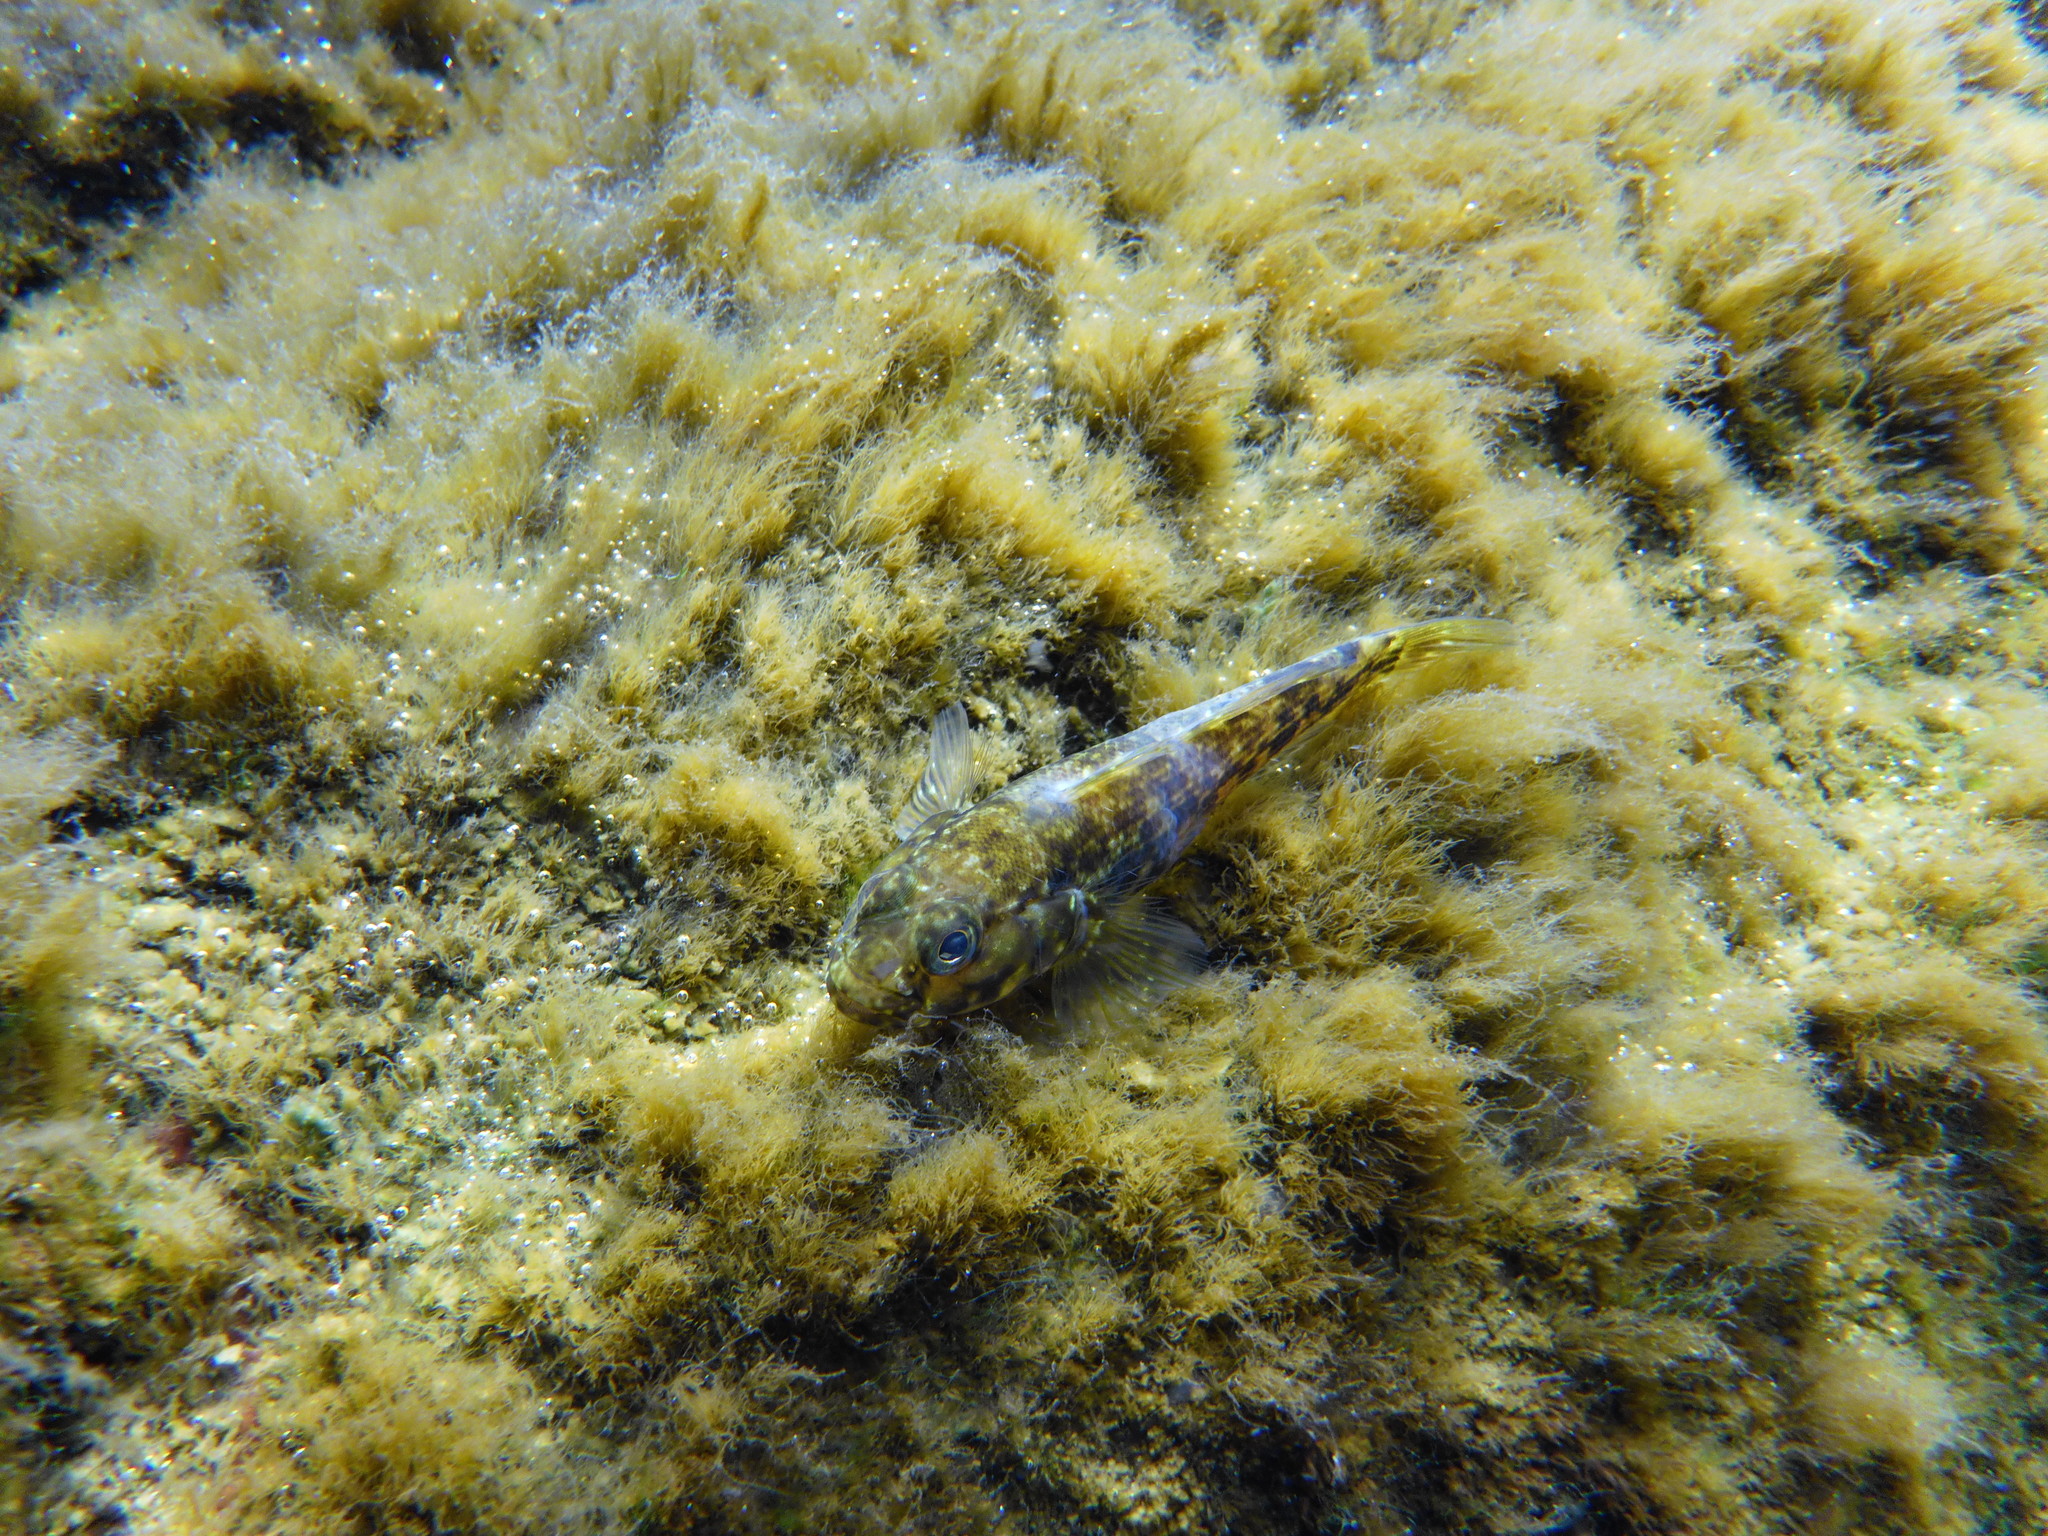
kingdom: Animalia
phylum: Chordata
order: Perciformes
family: Gobiidae
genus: Bathygobius
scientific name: Bathygobius lineatus
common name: Southern frillfin
